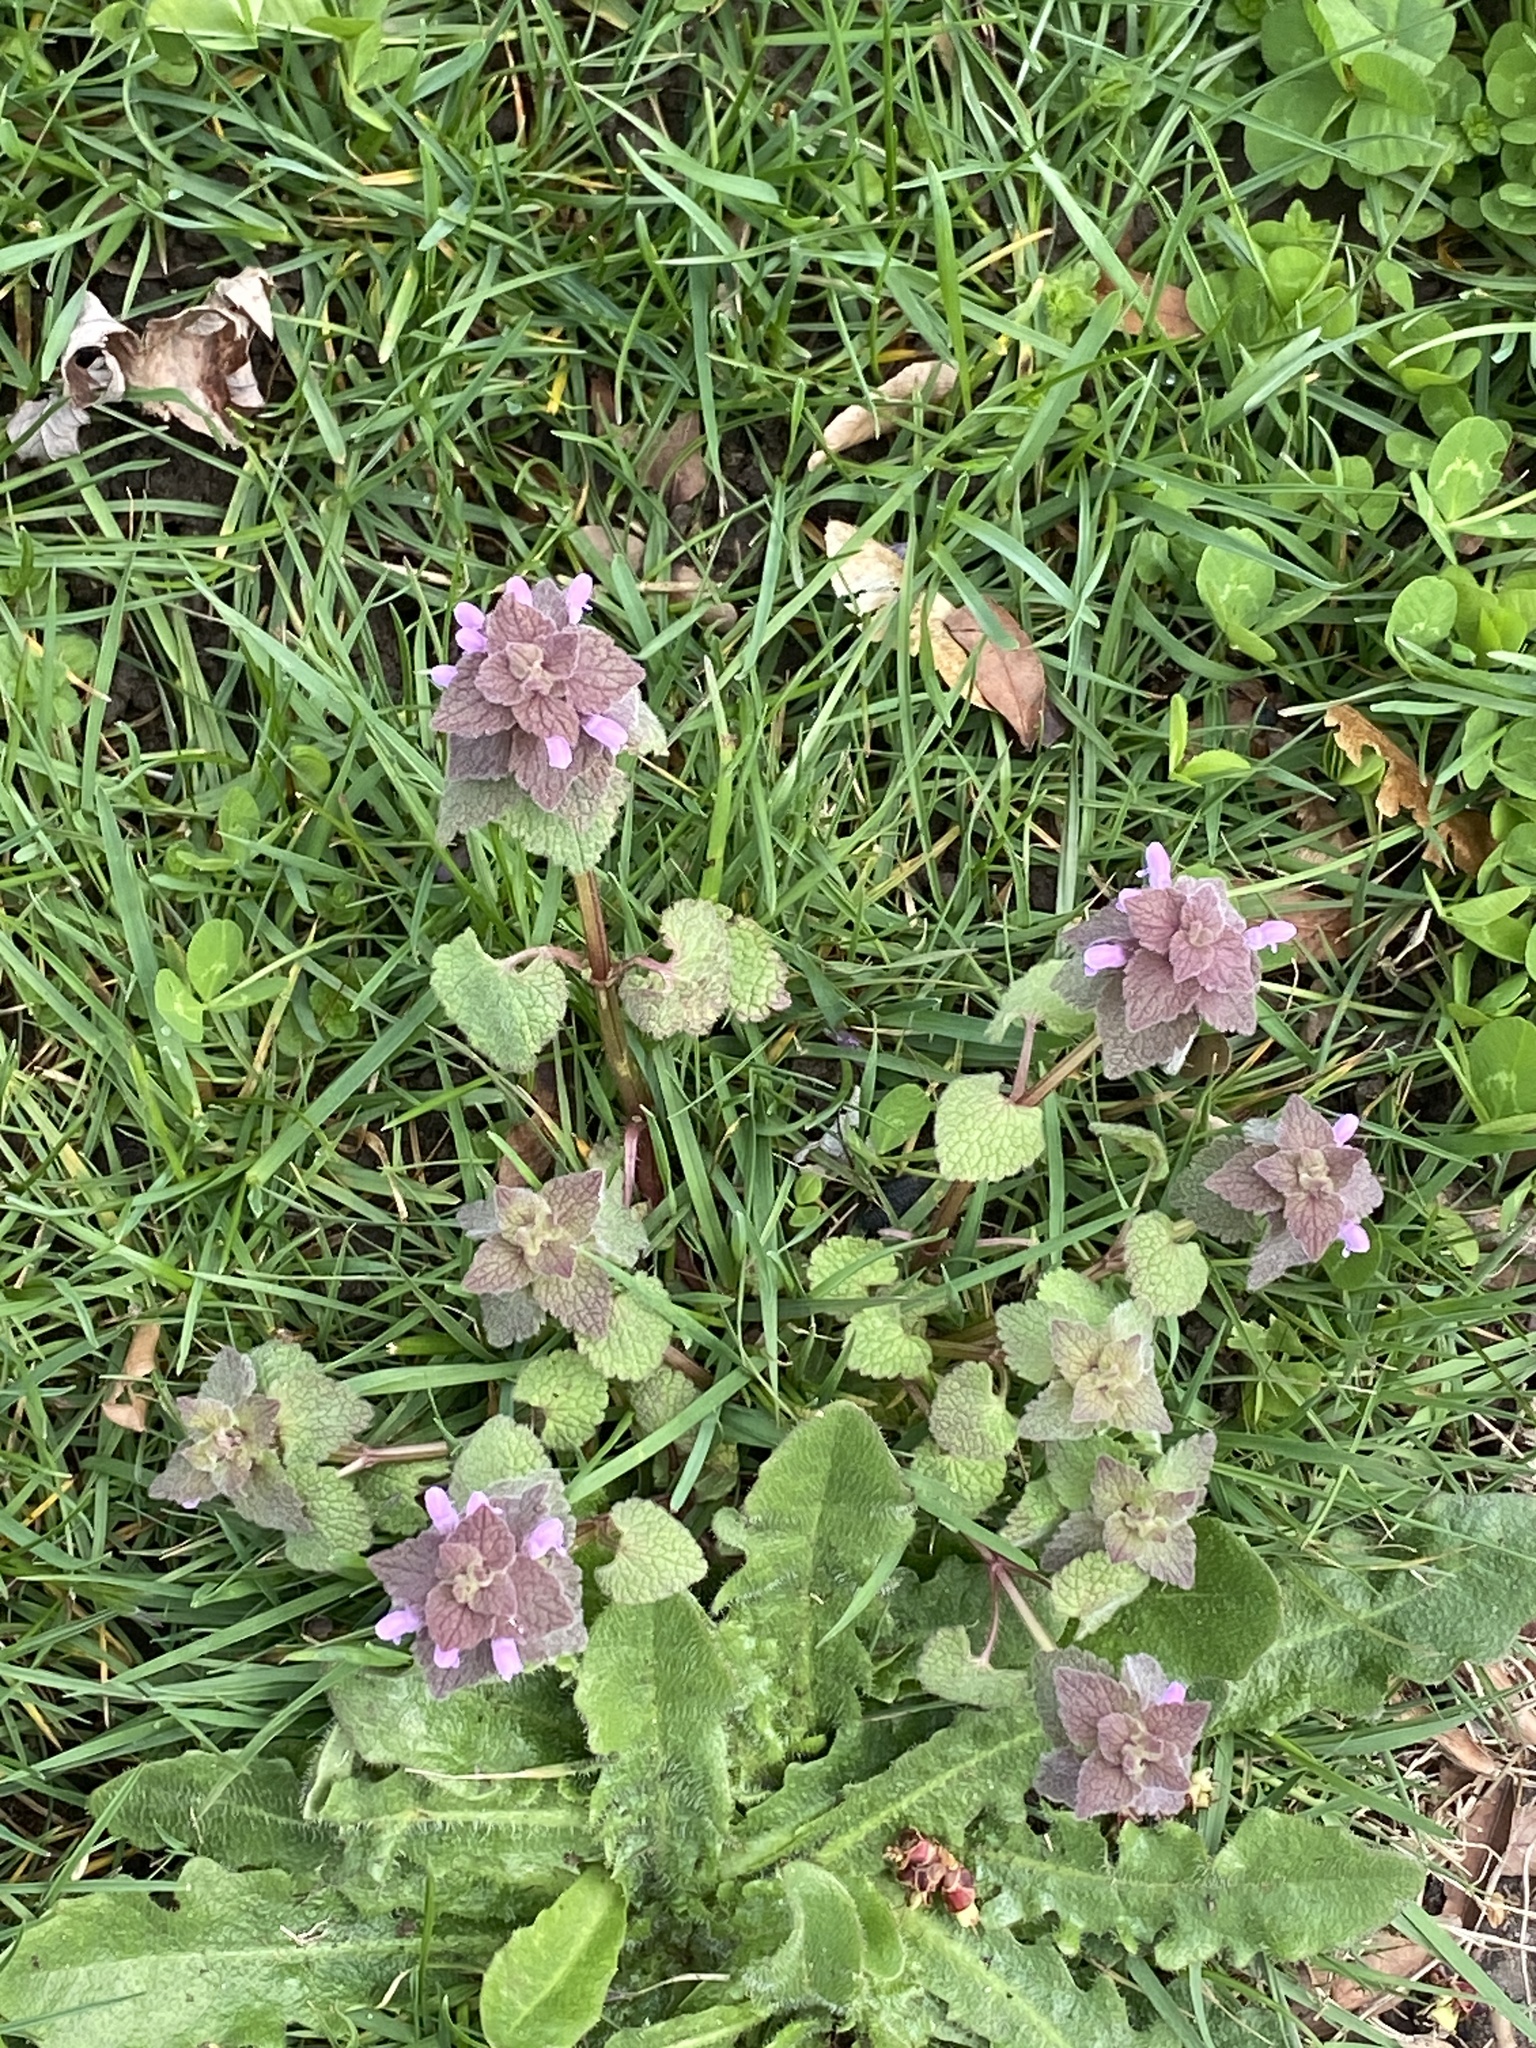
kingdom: Plantae
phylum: Tracheophyta
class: Magnoliopsida
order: Lamiales
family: Lamiaceae
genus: Lamium
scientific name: Lamium purpureum
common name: Red dead-nettle
